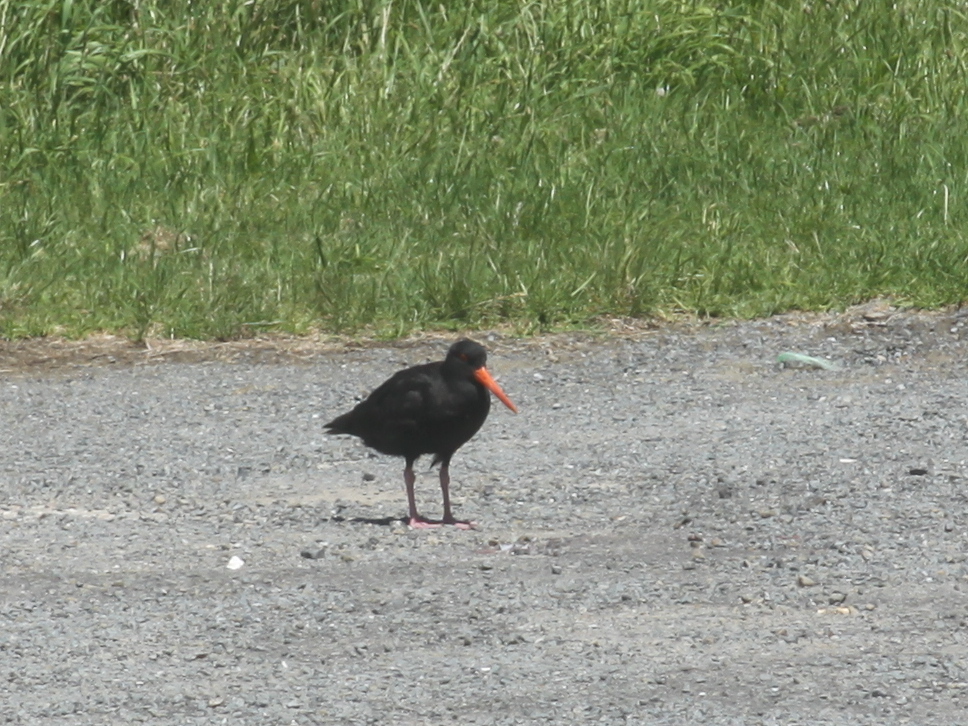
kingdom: Animalia
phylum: Chordata
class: Aves
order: Charadriiformes
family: Haematopodidae
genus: Haematopus
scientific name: Haematopus unicolor
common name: Variable oystercatcher
